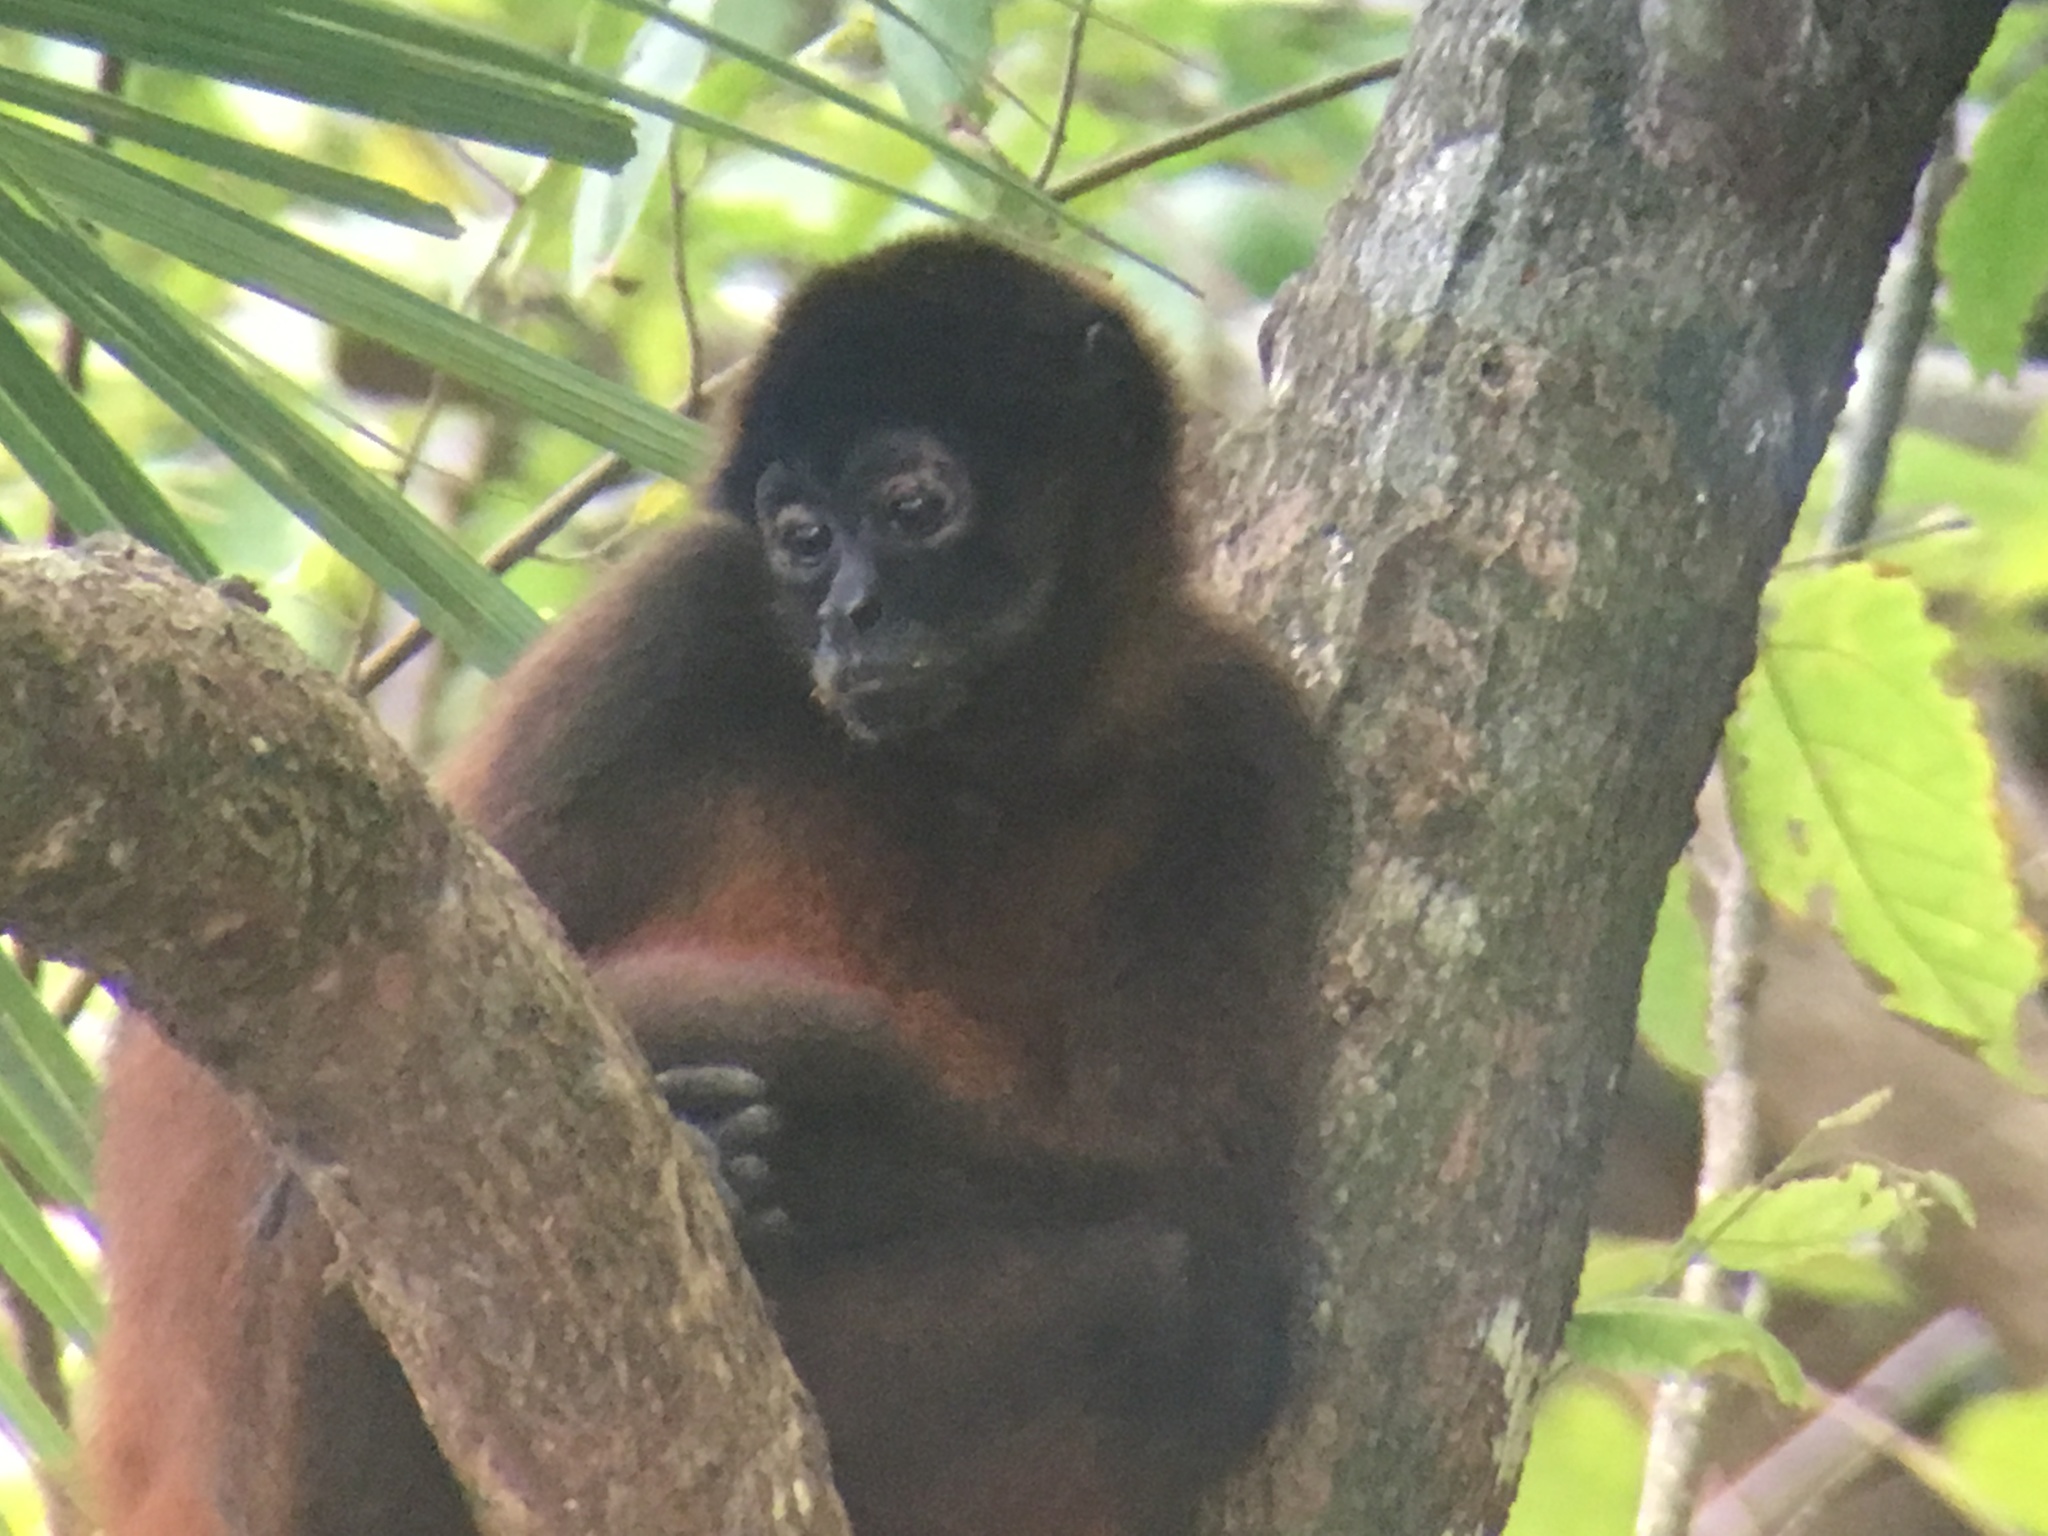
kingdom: Animalia
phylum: Chordata
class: Mammalia
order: Primates
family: Atelidae
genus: Ateles
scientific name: Ateles geoffroyi
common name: Black-handed spider monkey
